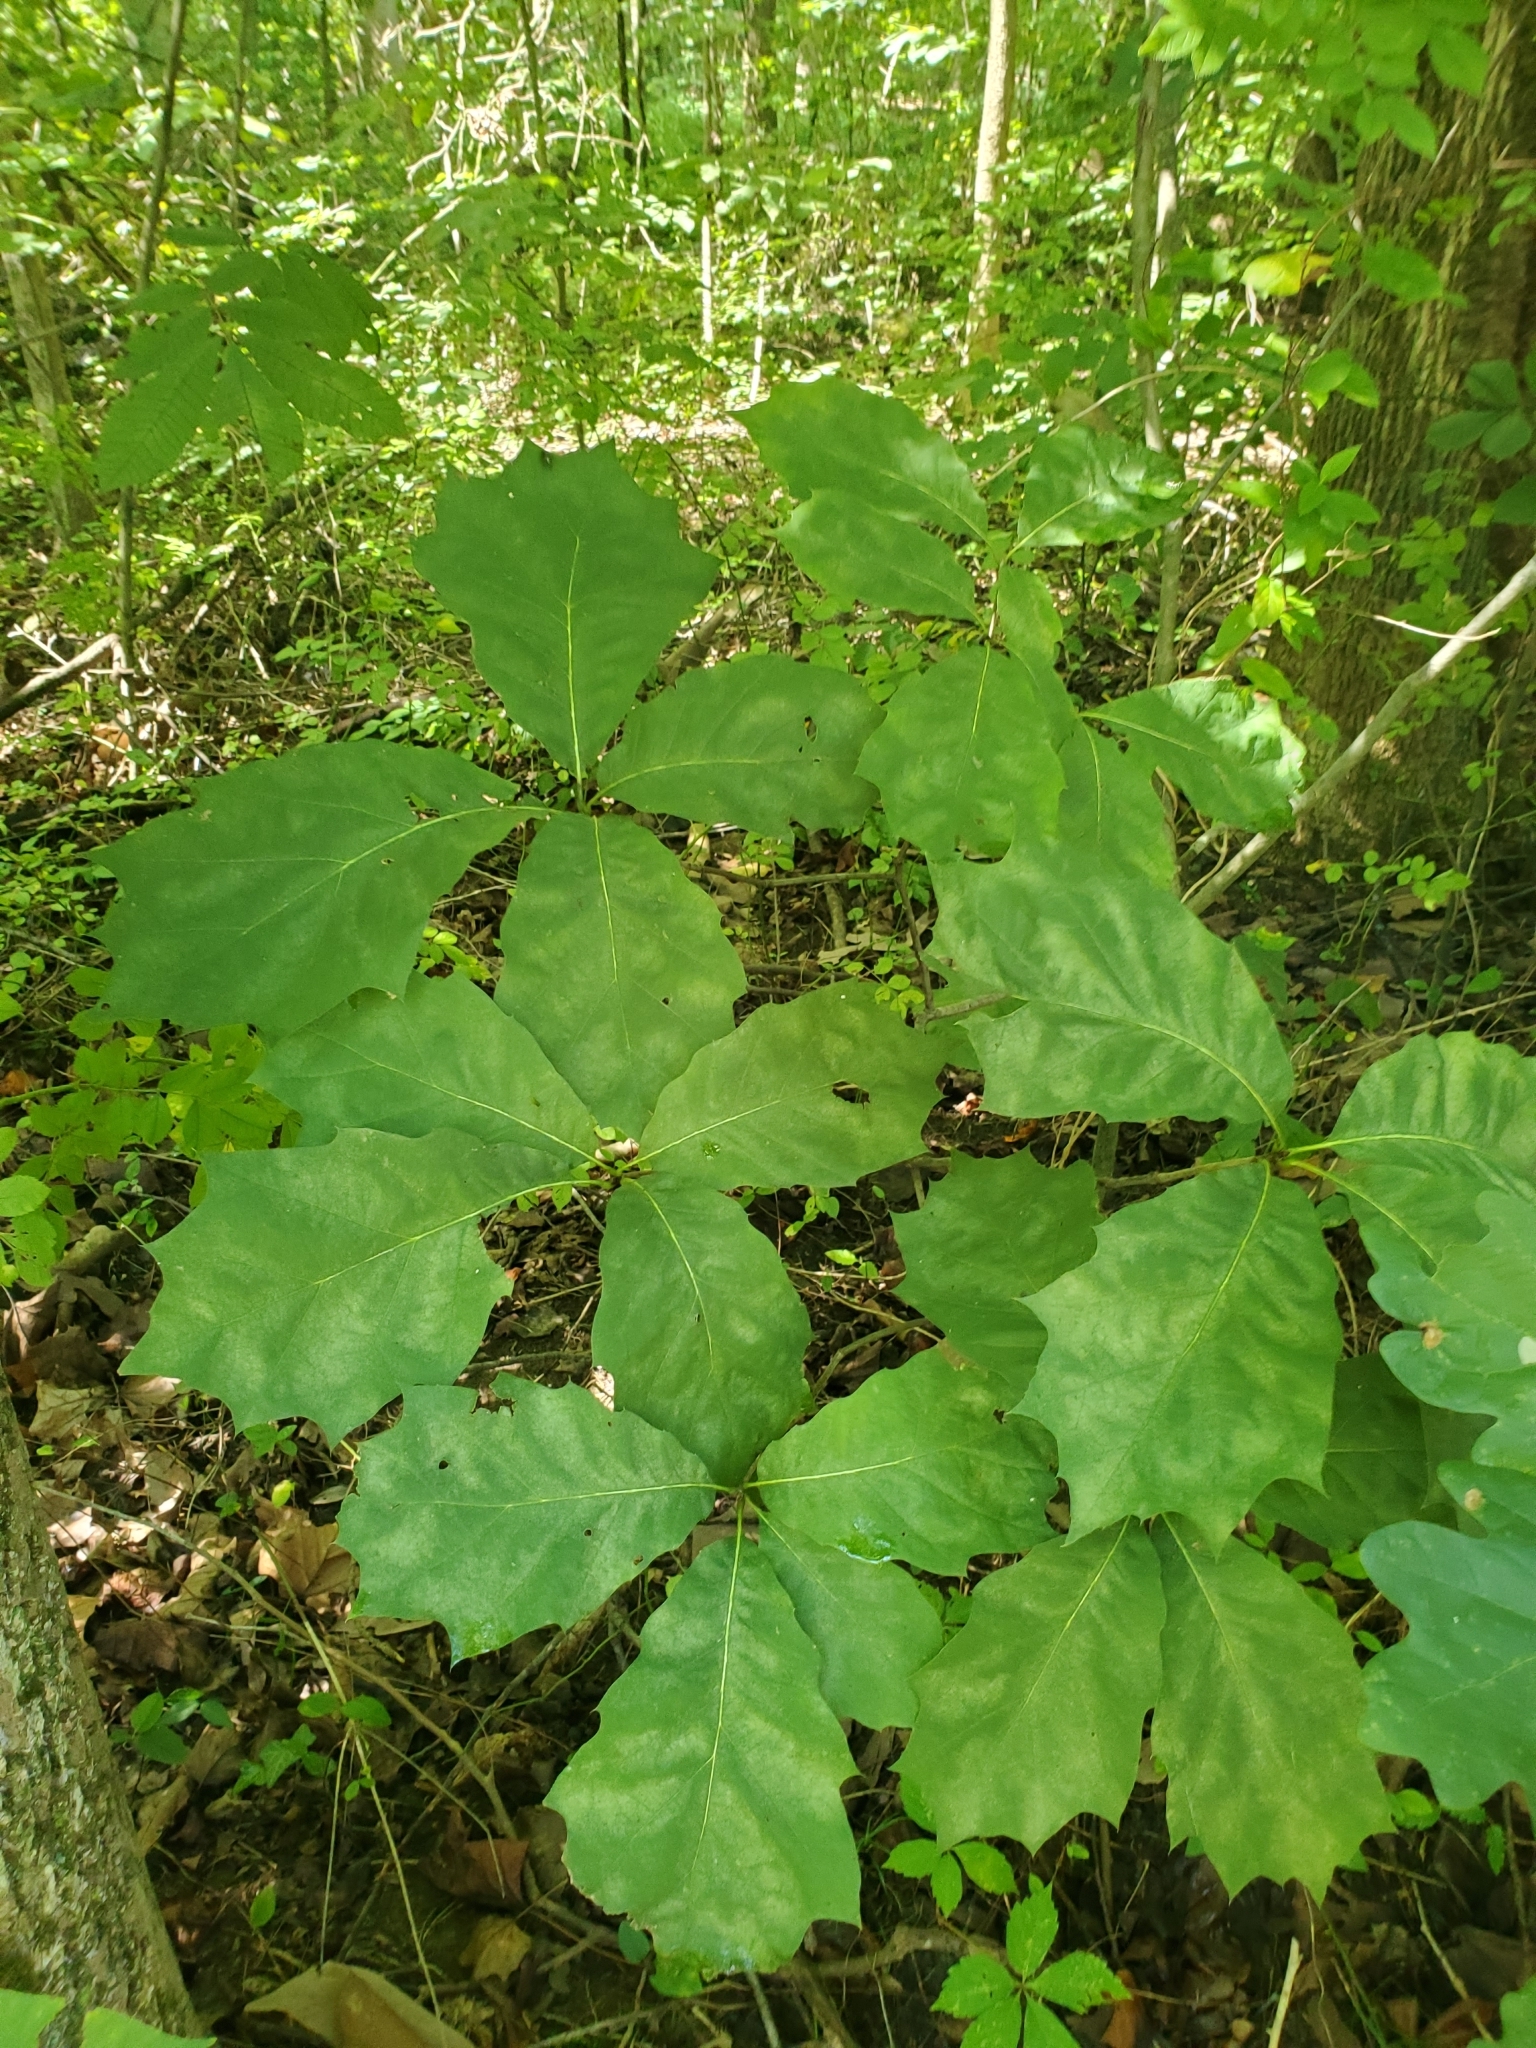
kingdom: Plantae
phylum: Tracheophyta
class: Magnoliopsida
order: Fagales
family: Fagaceae
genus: Quercus
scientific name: Quercus rubra
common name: Red oak
